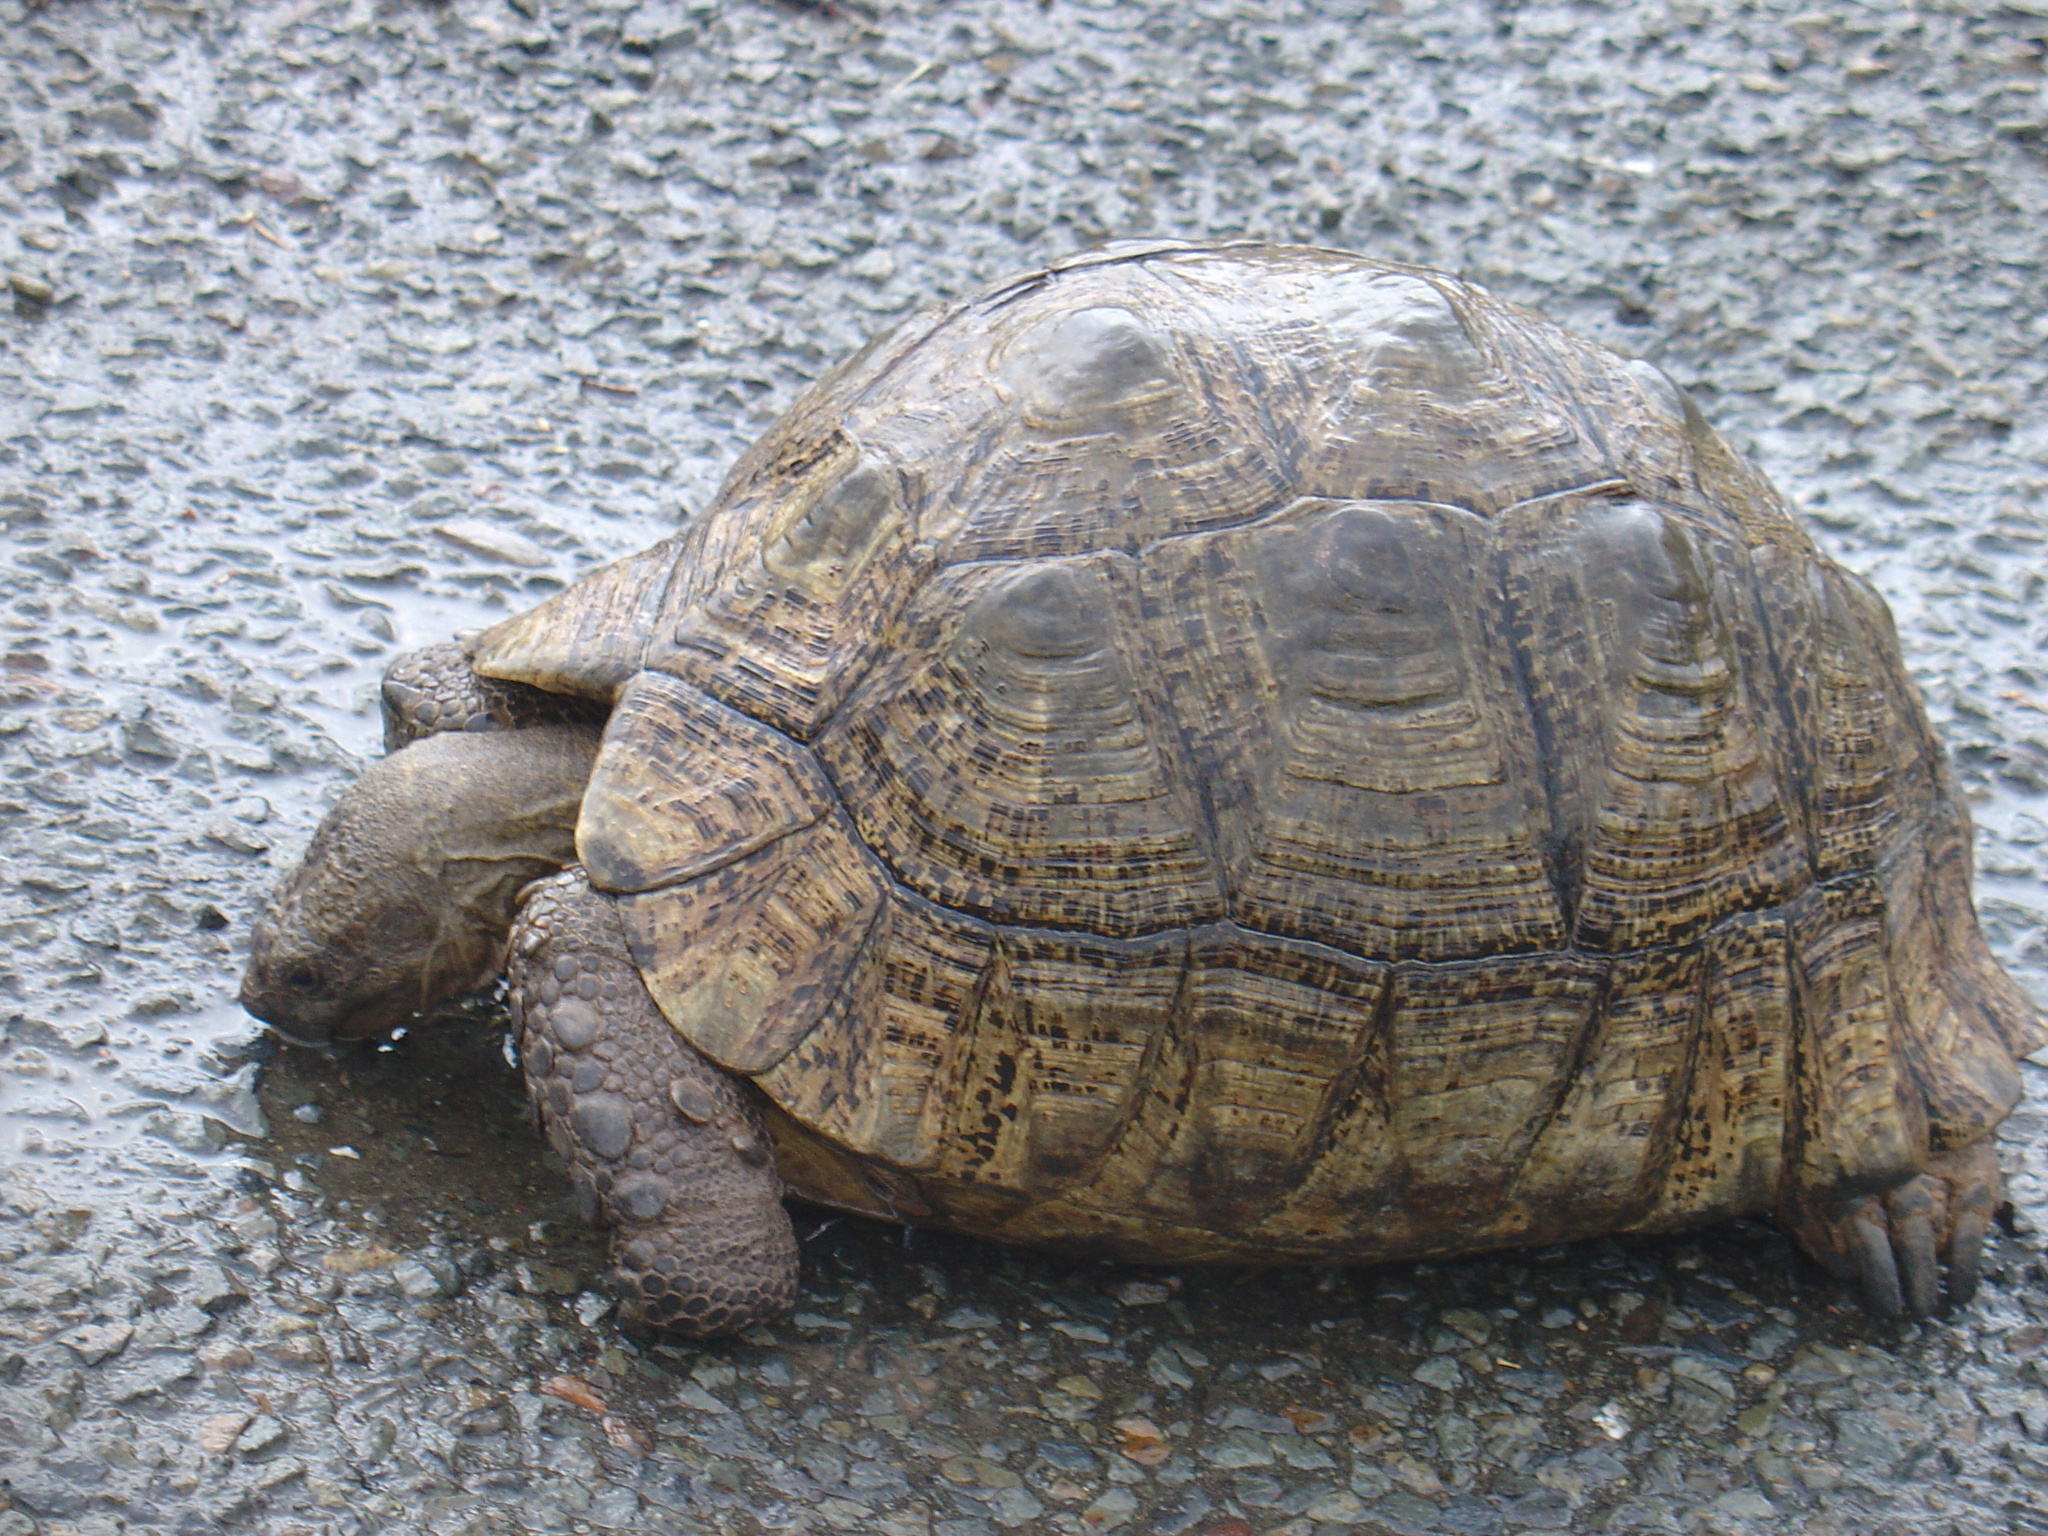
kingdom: Animalia
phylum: Chordata
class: Testudines
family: Testudinidae
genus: Stigmochelys
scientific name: Stigmochelys pardalis
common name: Leopard tortoise
